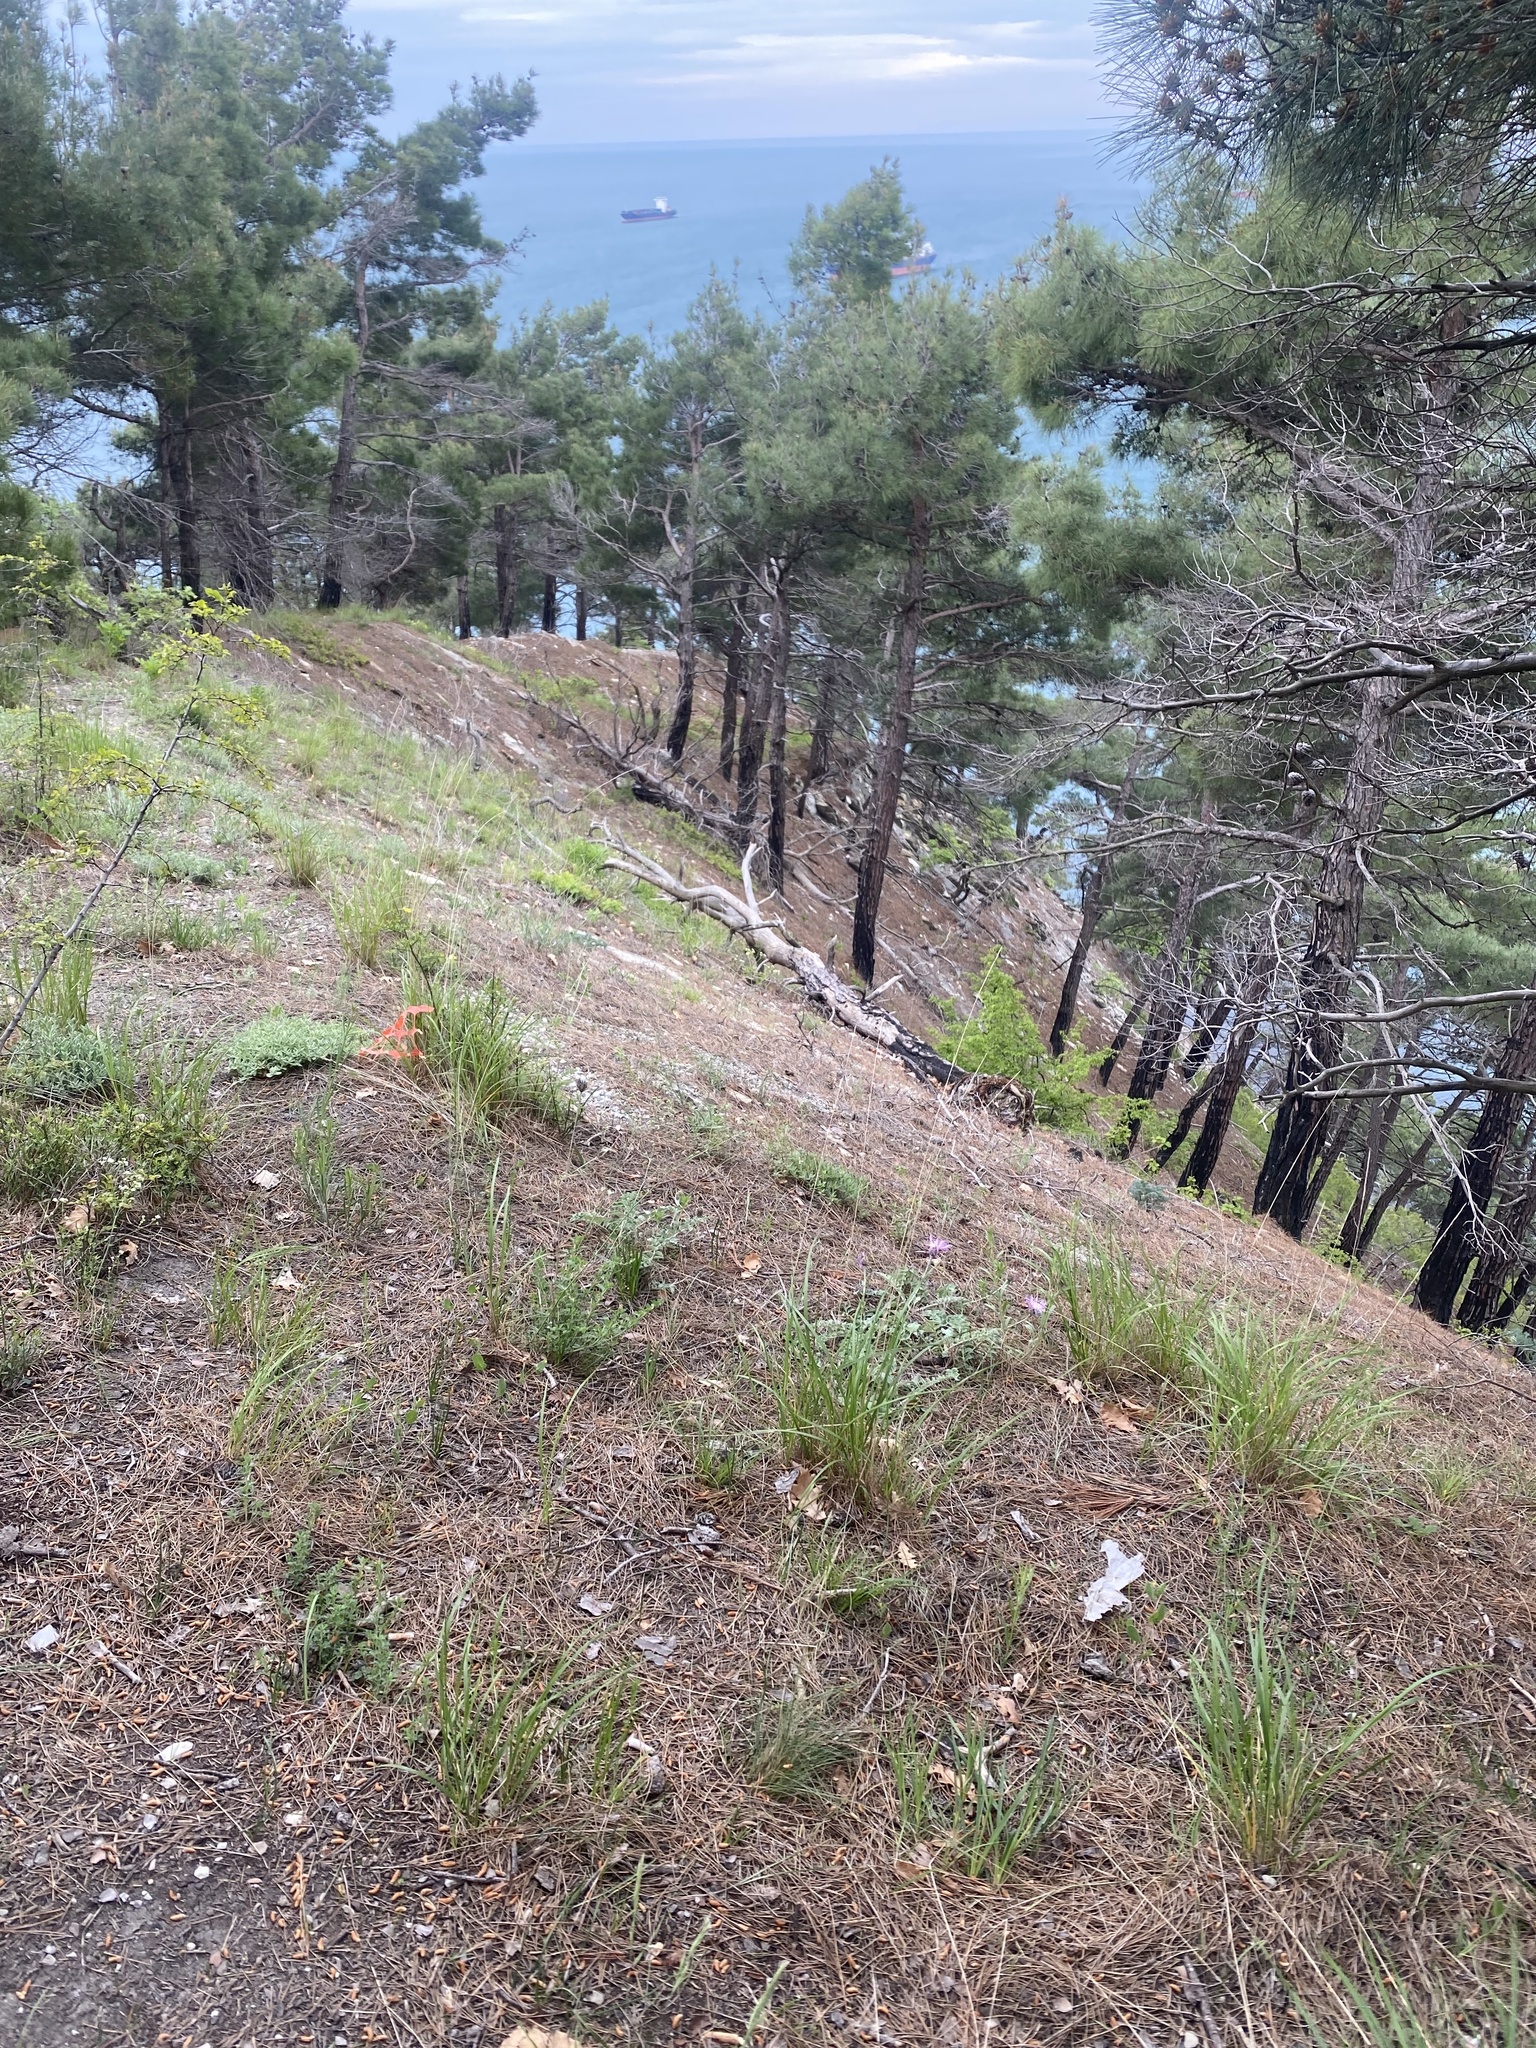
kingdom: Plantae
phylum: Tracheophyta
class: Pinopsida
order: Pinales
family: Pinaceae
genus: Pinus
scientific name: Pinus brutia
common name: Turkish pine
